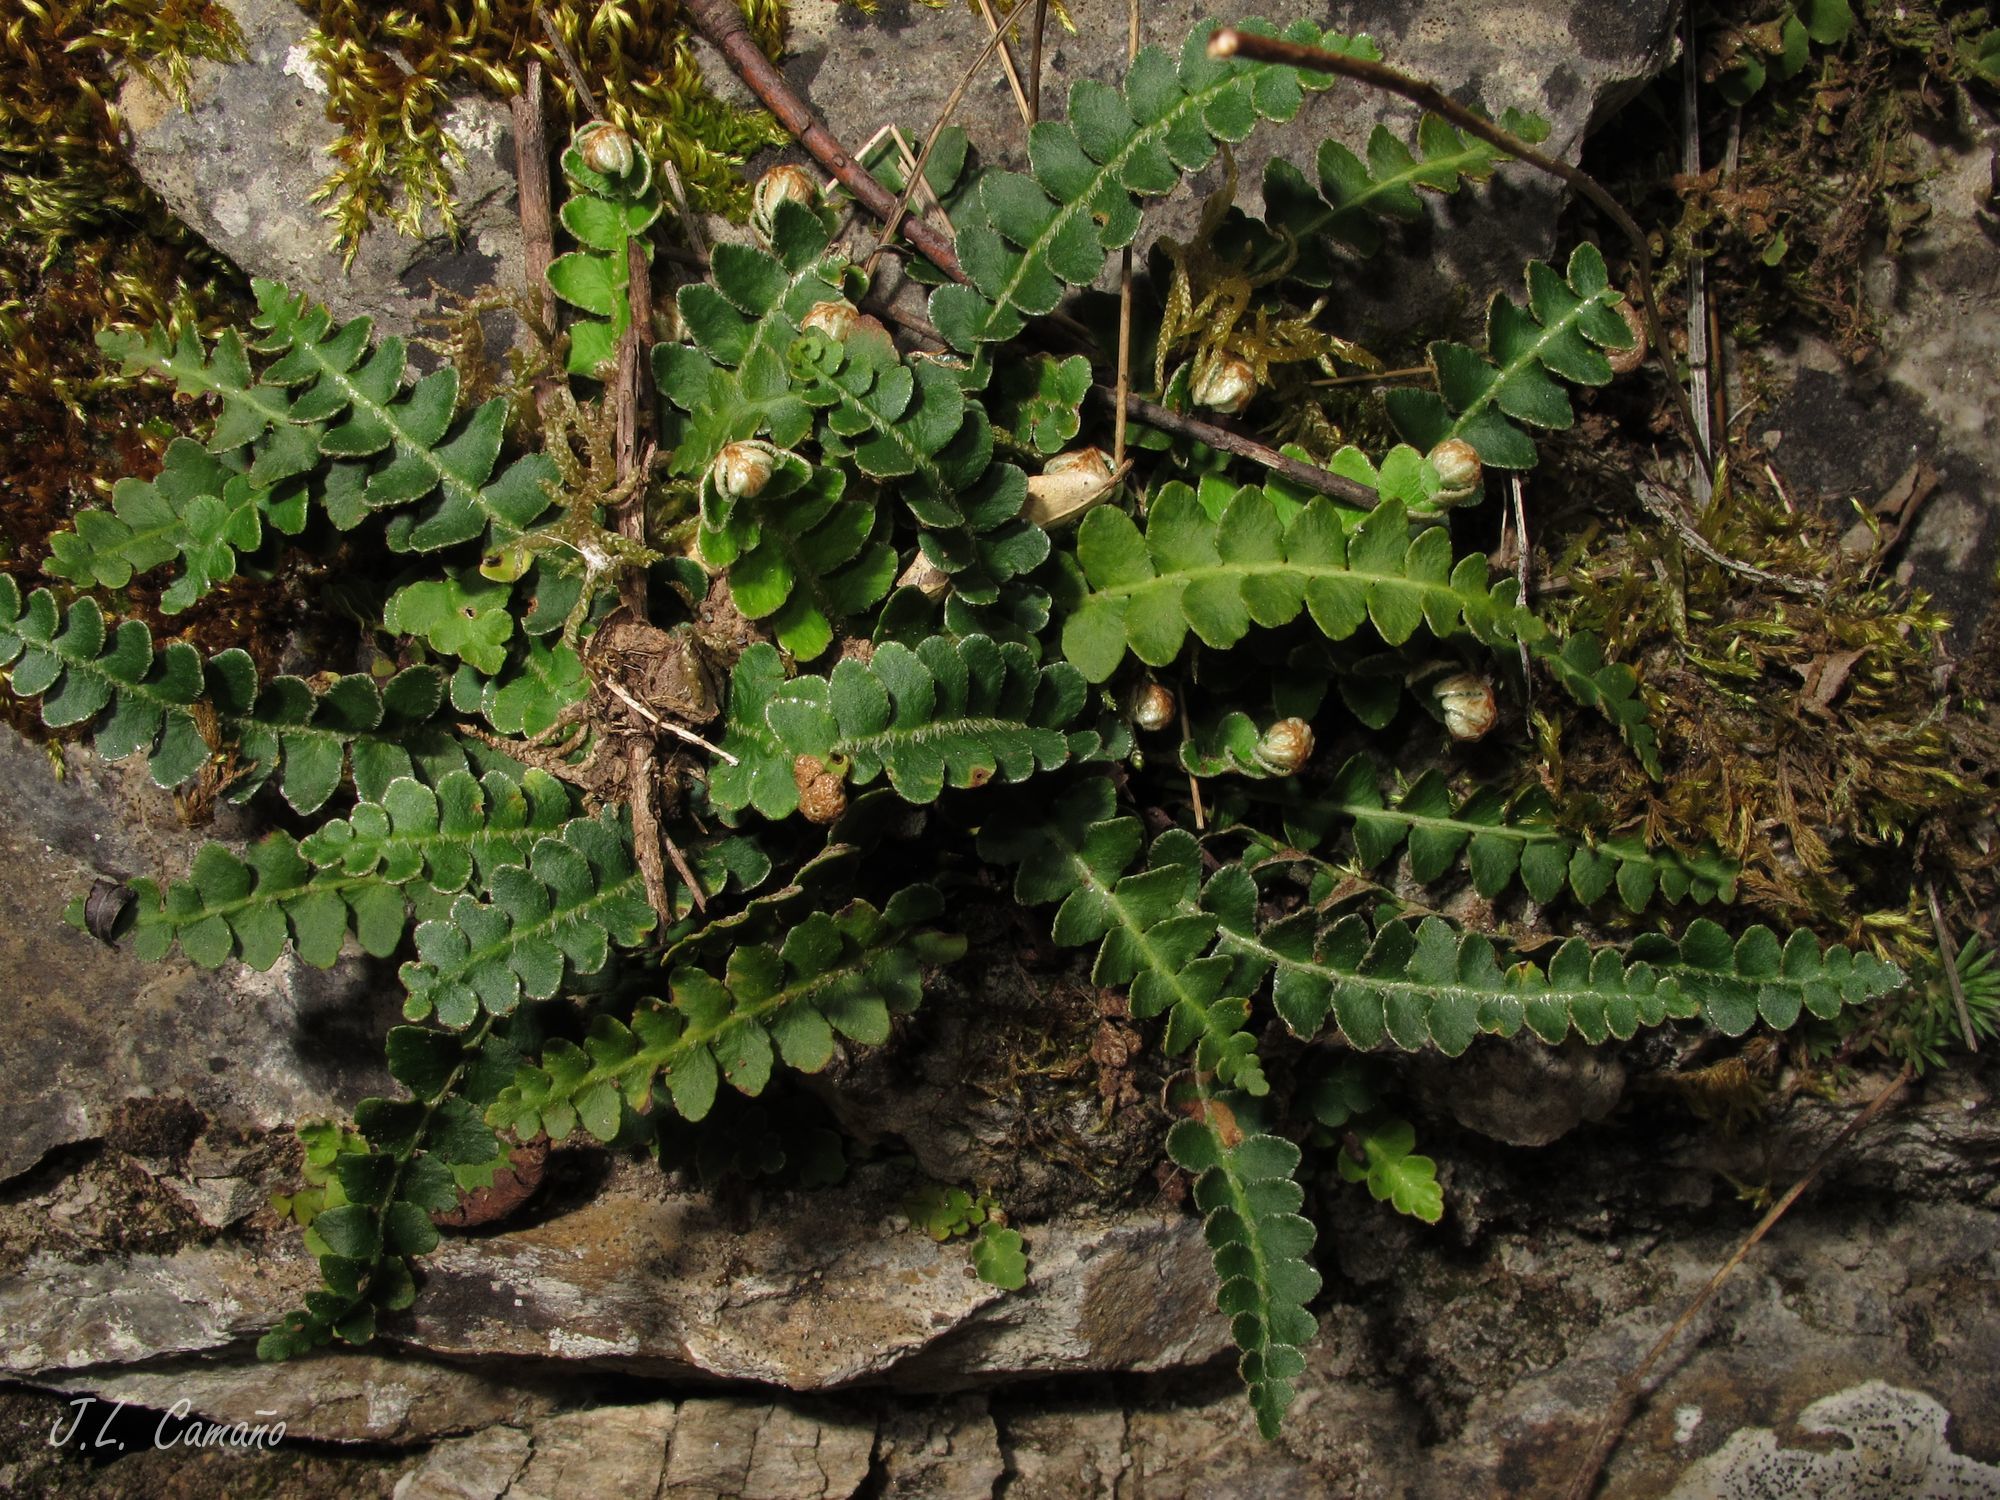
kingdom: Plantae
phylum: Tracheophyta
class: Polypodiopsida
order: Polypodiales
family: Aspleniaceae
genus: Asplenium
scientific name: Asplenium ceterach
